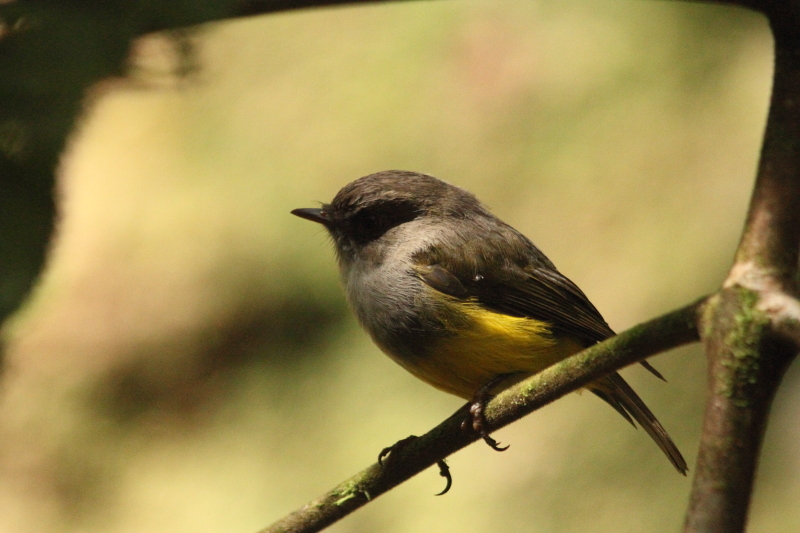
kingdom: Animalia
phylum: Chordata
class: Aves
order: Passeriformes
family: Petroicidae
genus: Microeca
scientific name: Microeca flaviventris
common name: Yellow-bellied flyrobin
